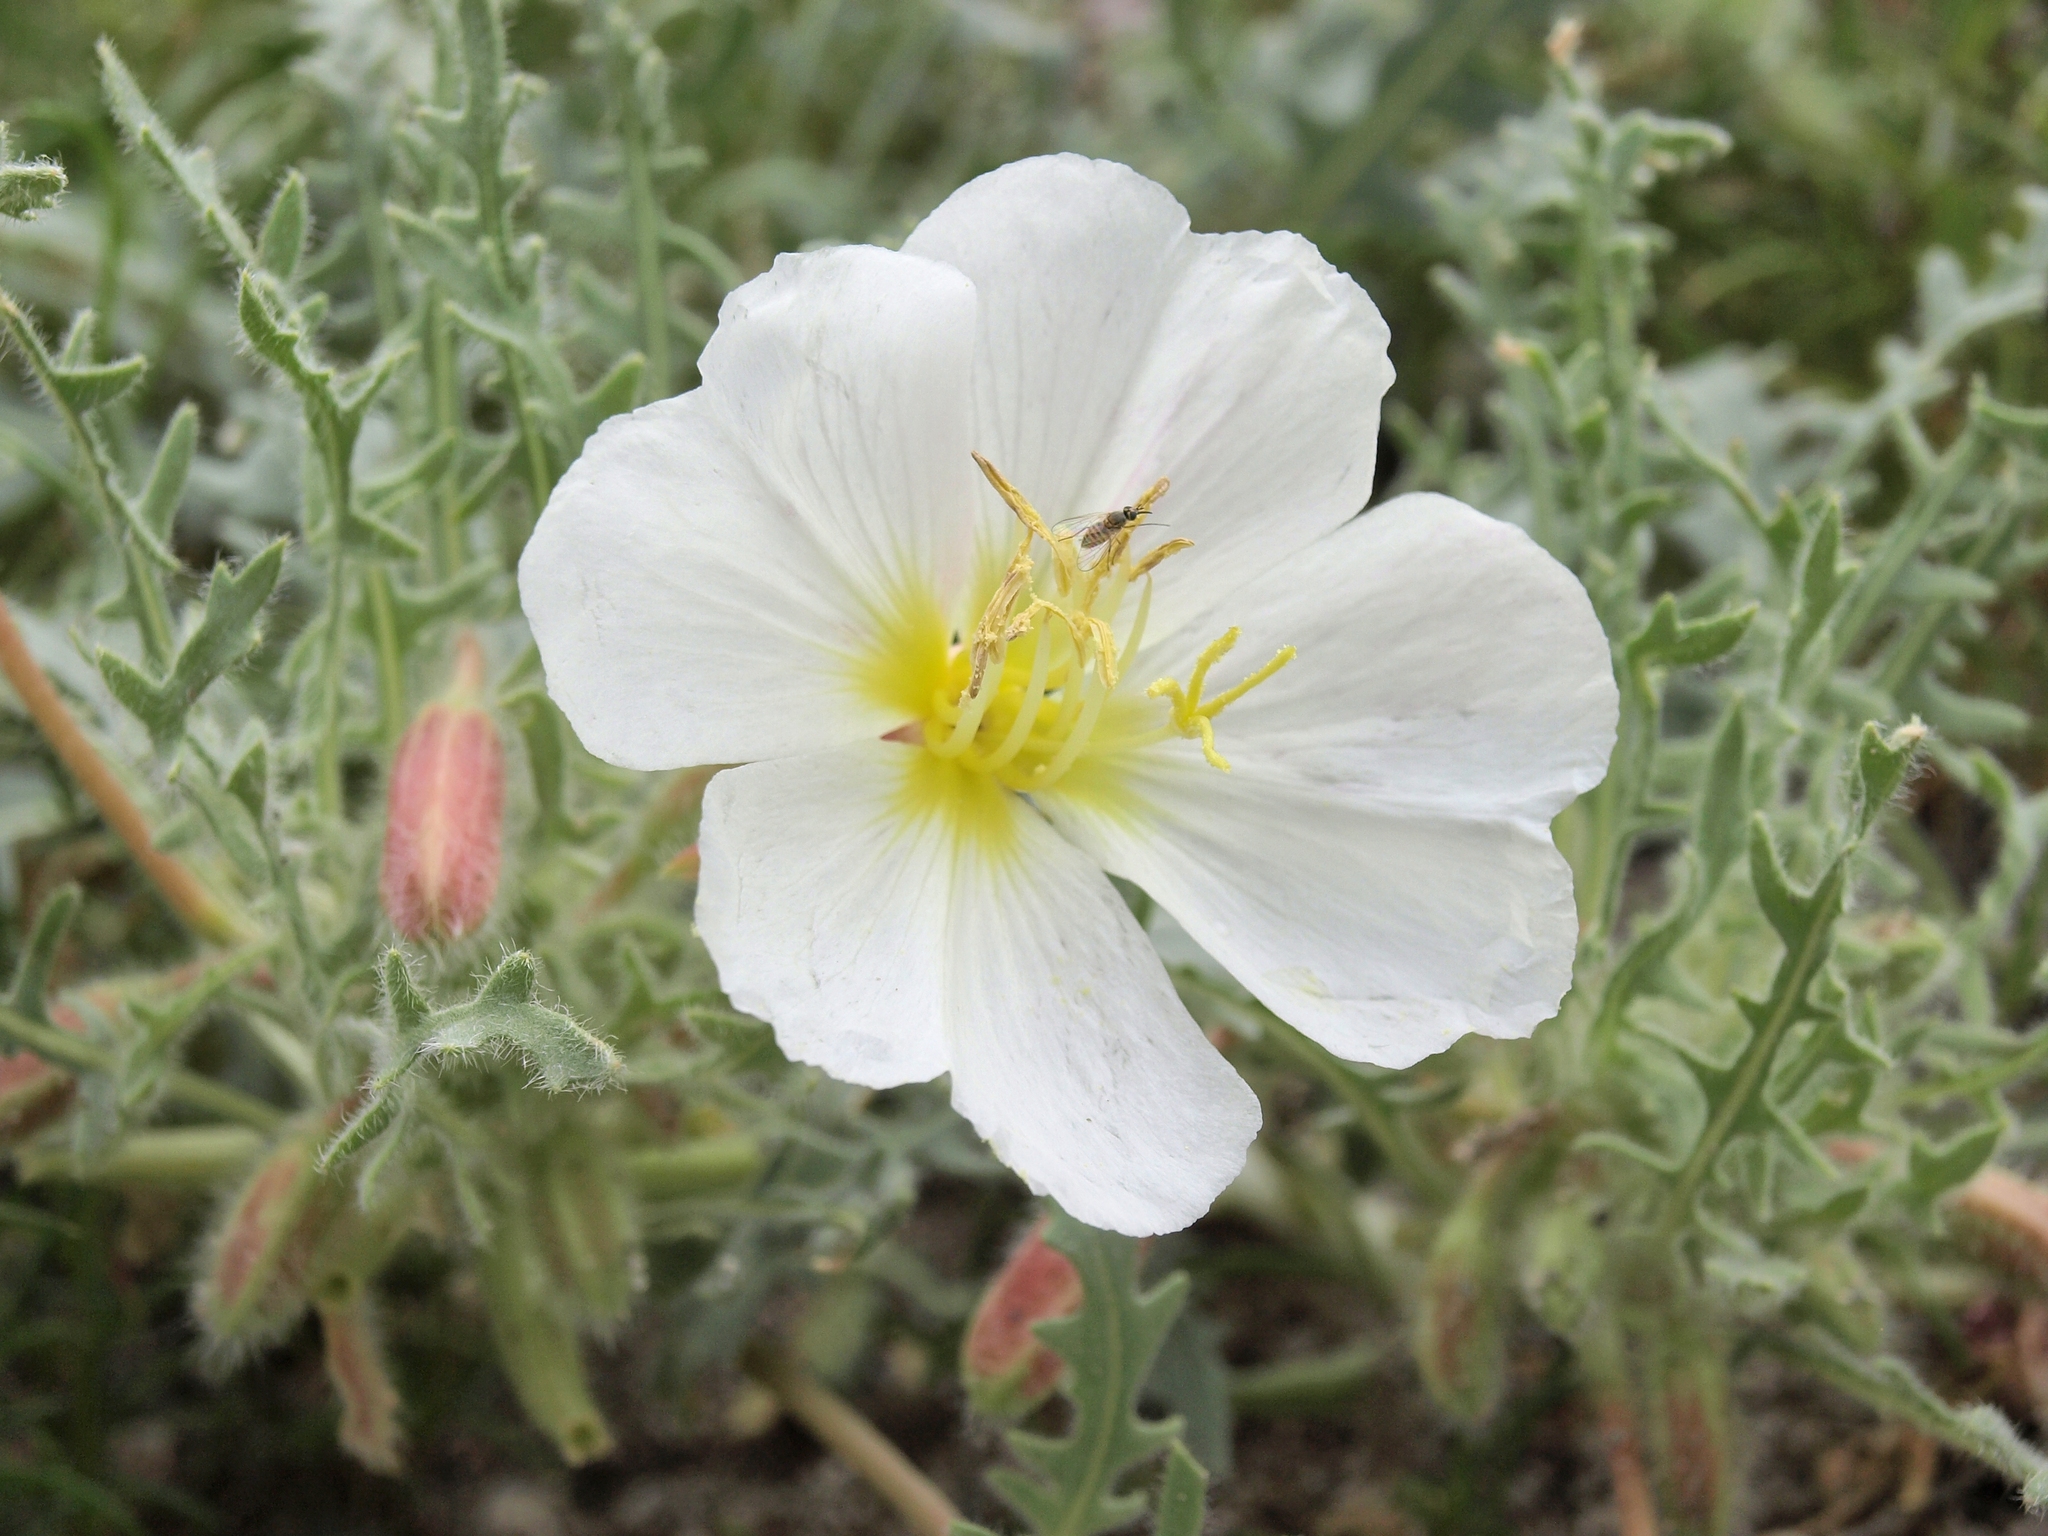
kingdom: Plantae
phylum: Tracheophyta
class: Magnoliopsida
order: Myrtales
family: Onagraceae
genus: Oenothera
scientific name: Oenothera deltoides
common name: Basket evening-primrose
